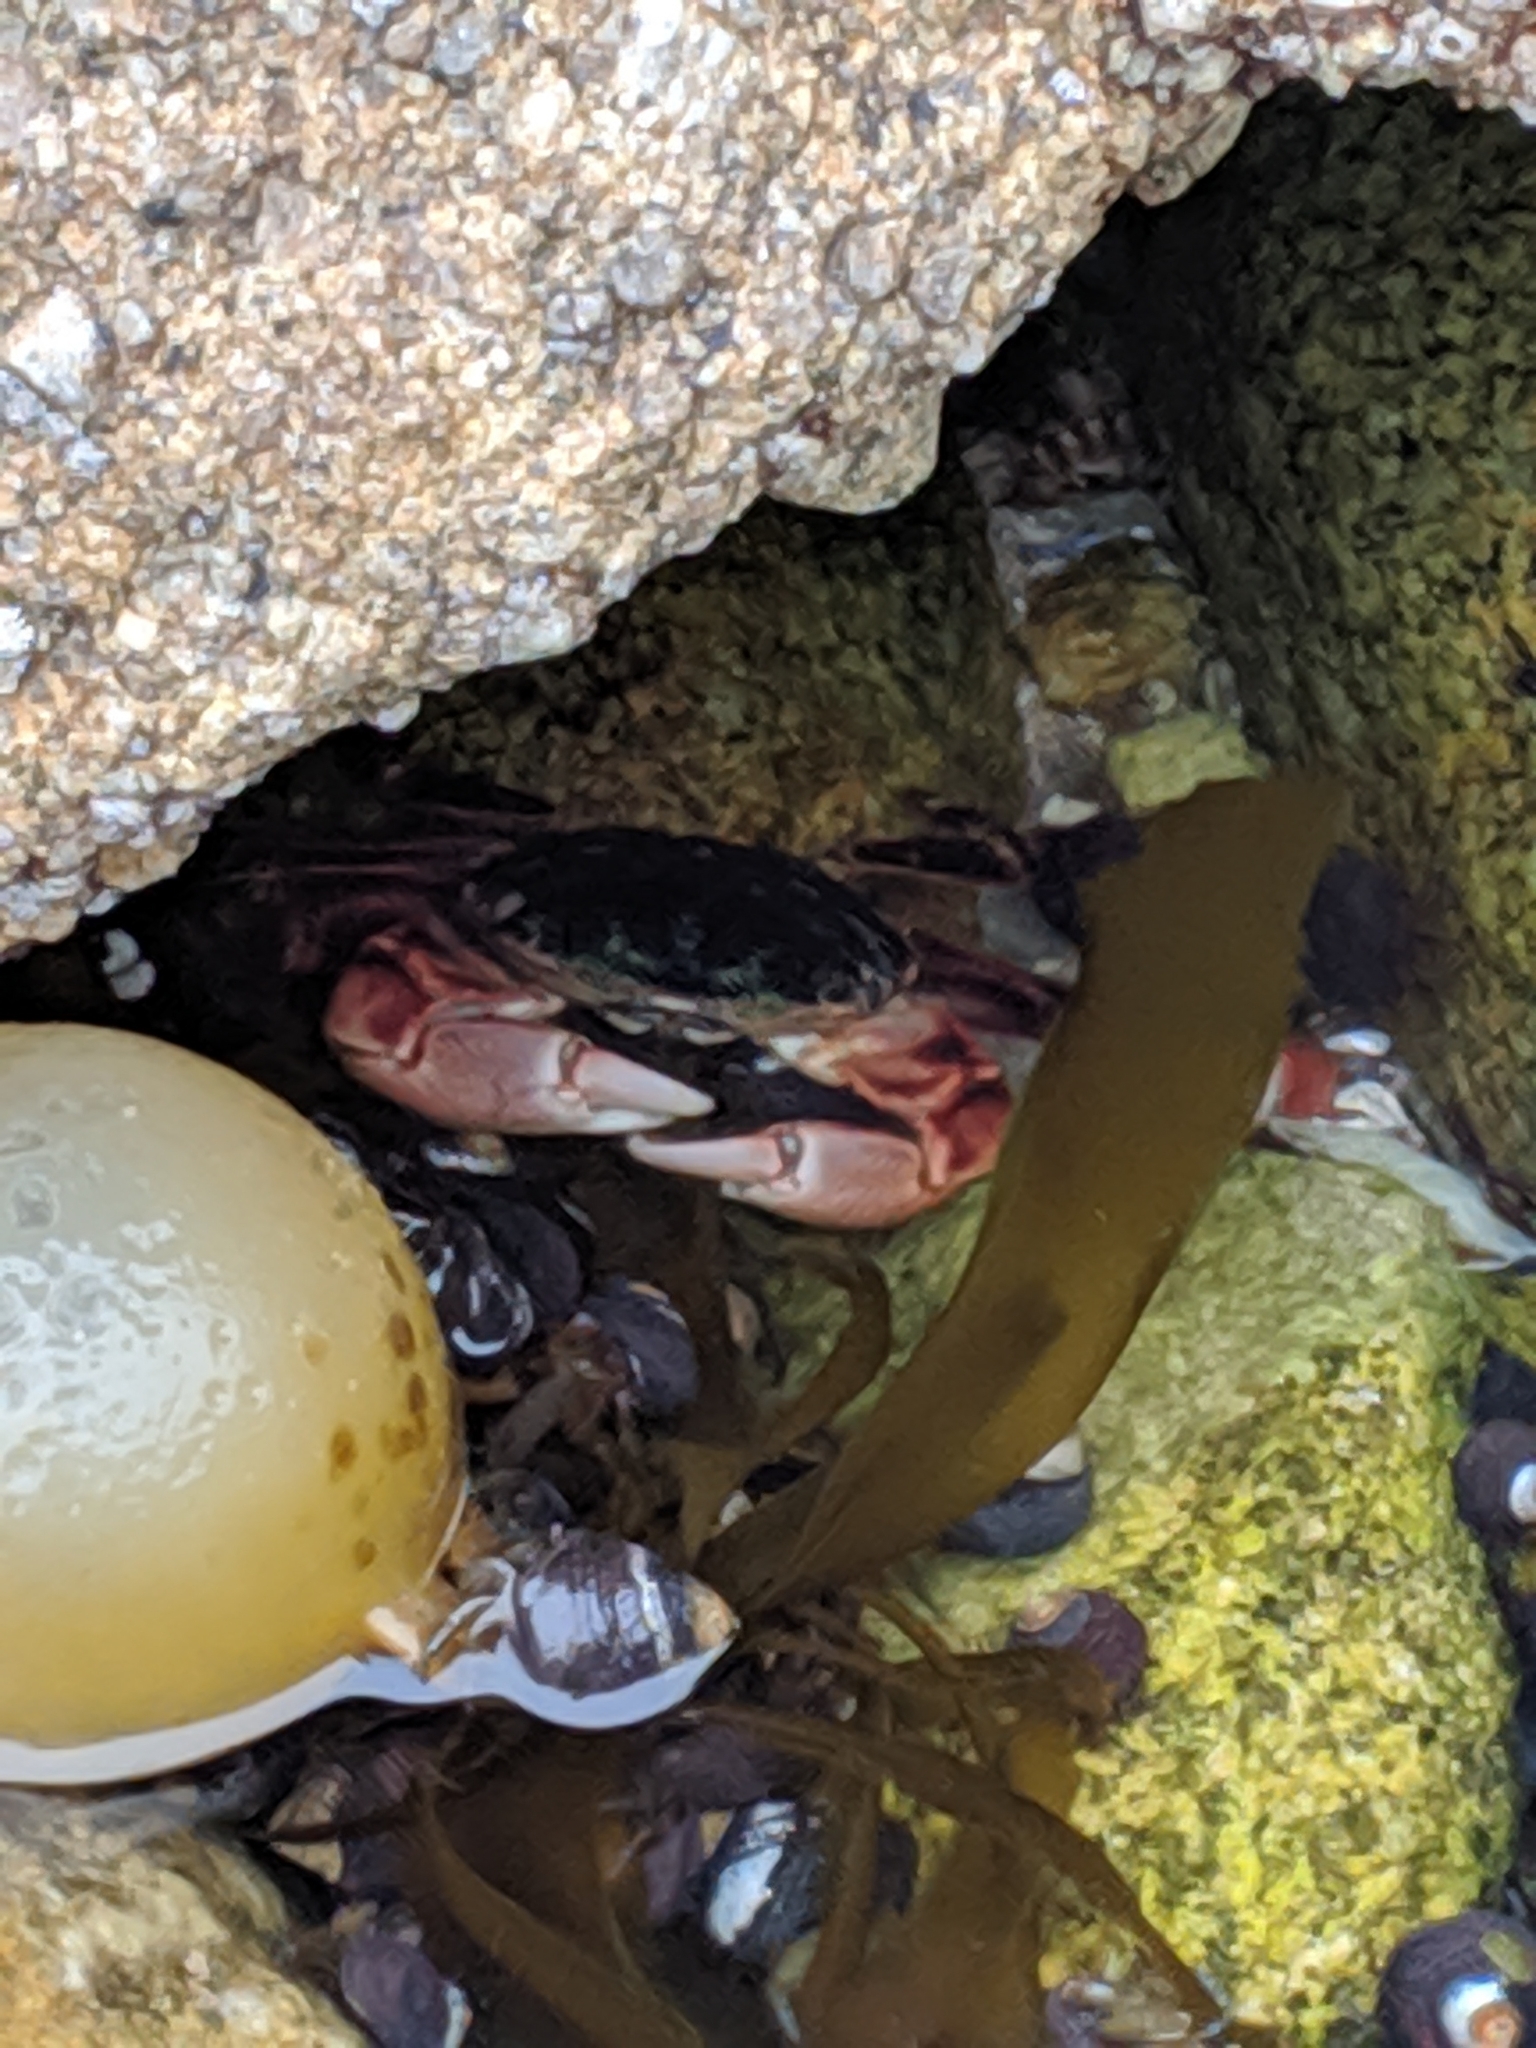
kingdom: Animalia
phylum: Arthropoda
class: Malacostraca
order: Decapoda
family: Grapsidae
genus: Pachygrapsus
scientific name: Pachygrapsus crassipes
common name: Striped shore crab
